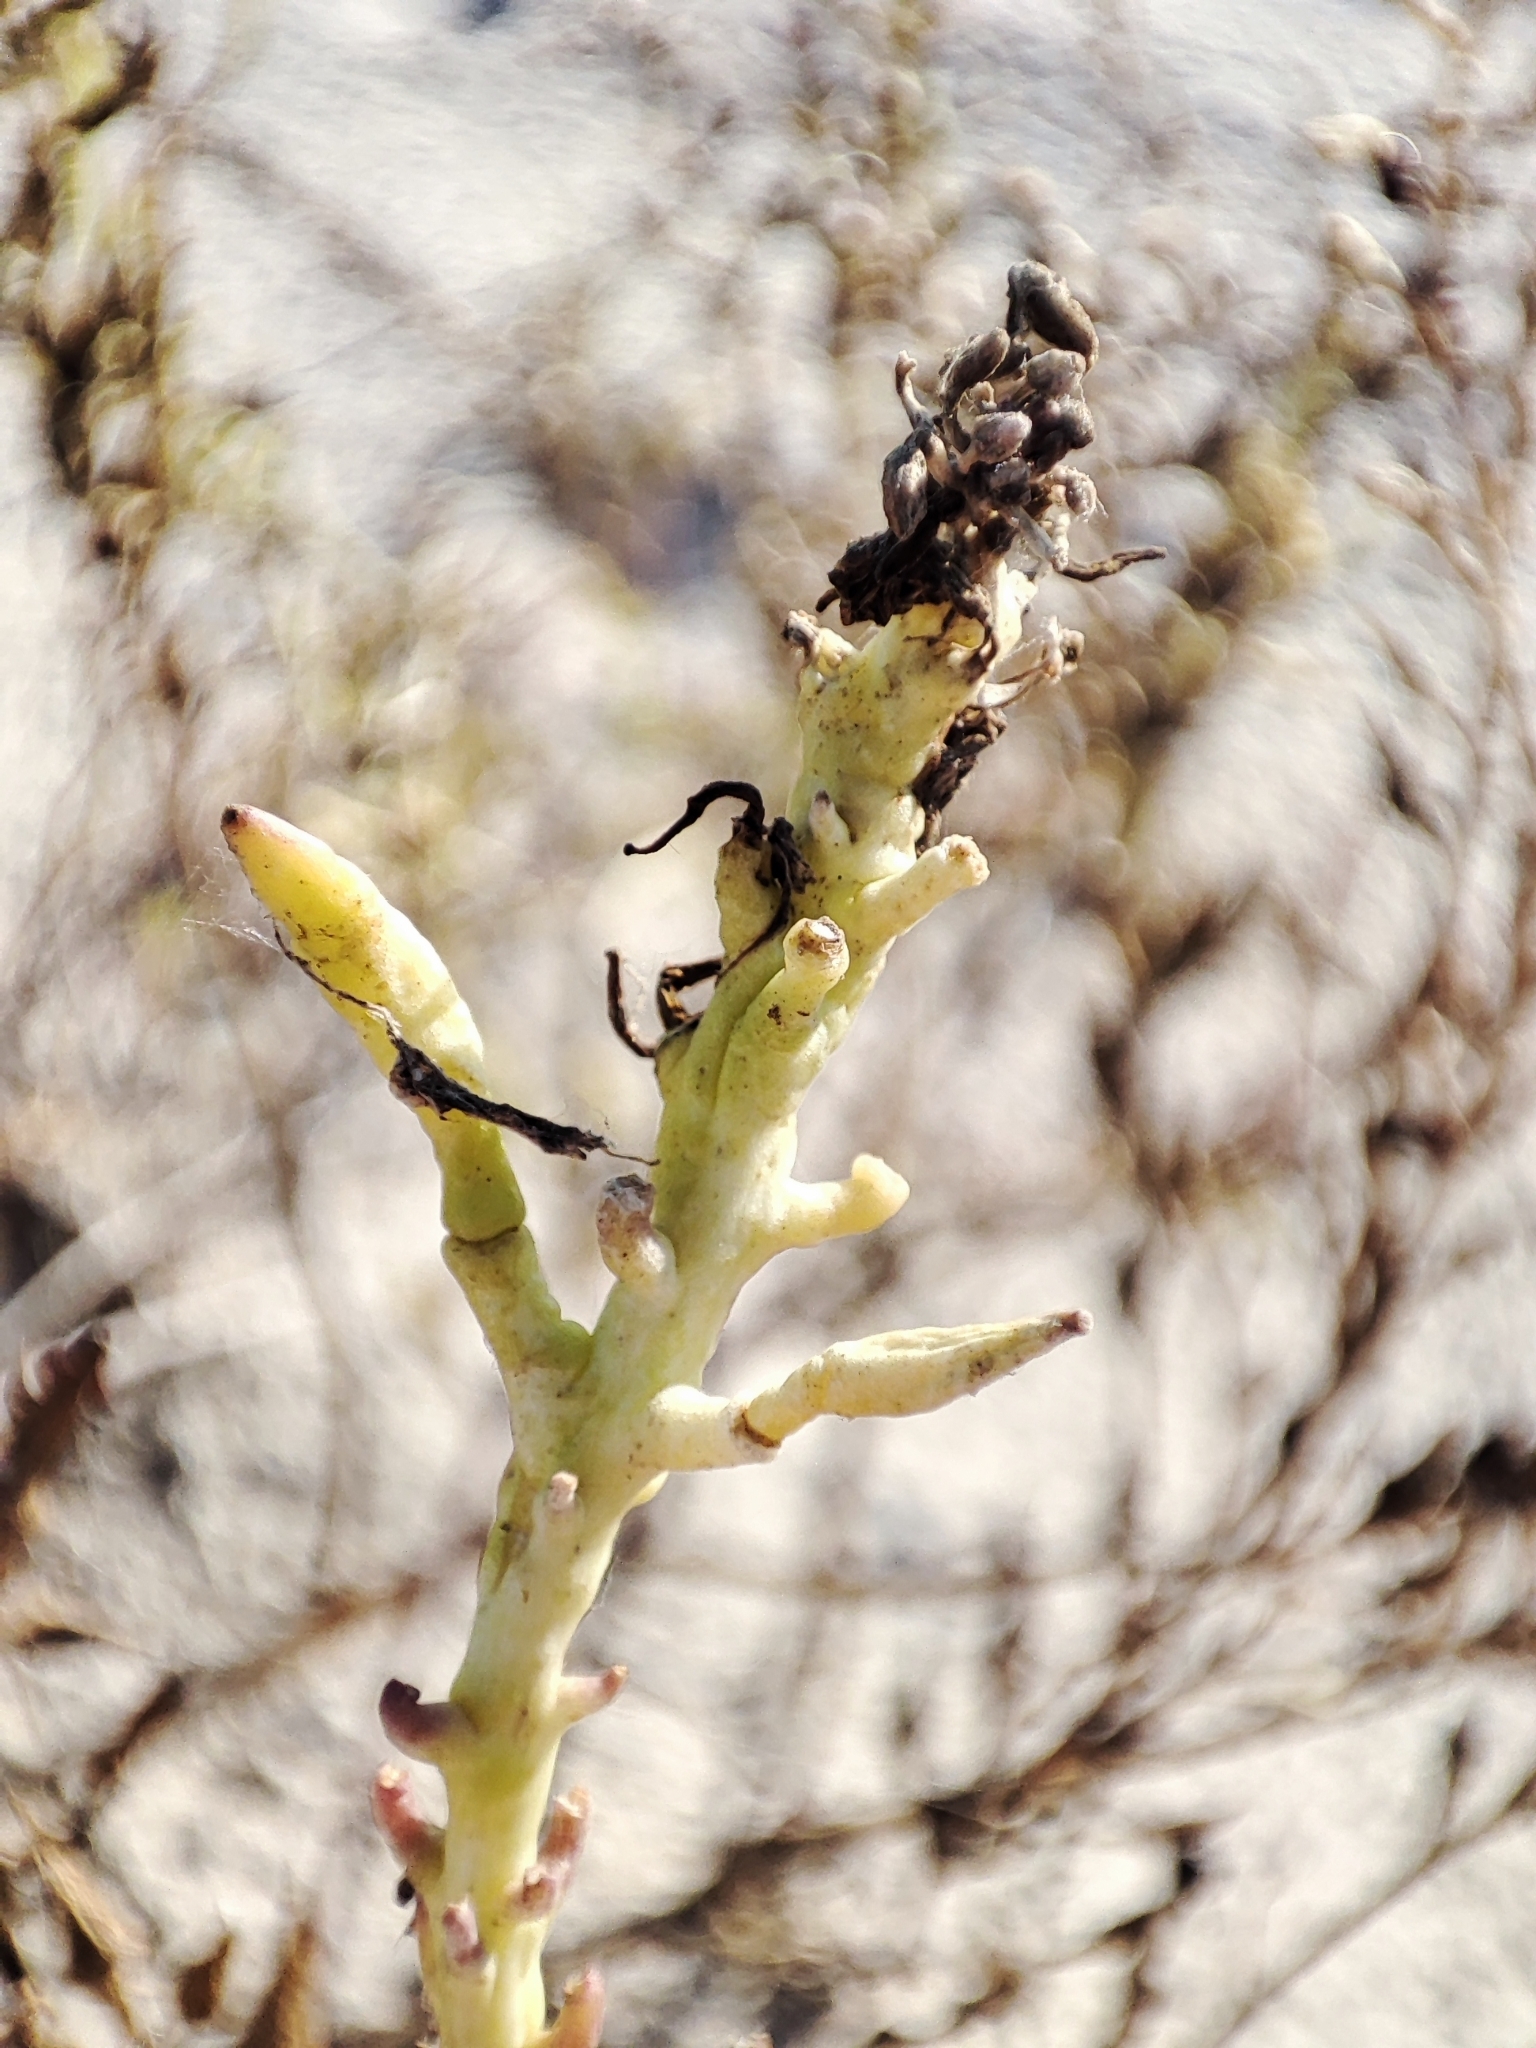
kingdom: Plantae
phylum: Tracheophyta
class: Magnoliopsida
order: Brassicales
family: Brassicaceae
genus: Cakile
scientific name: Cakile maritima
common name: Sea rocket
